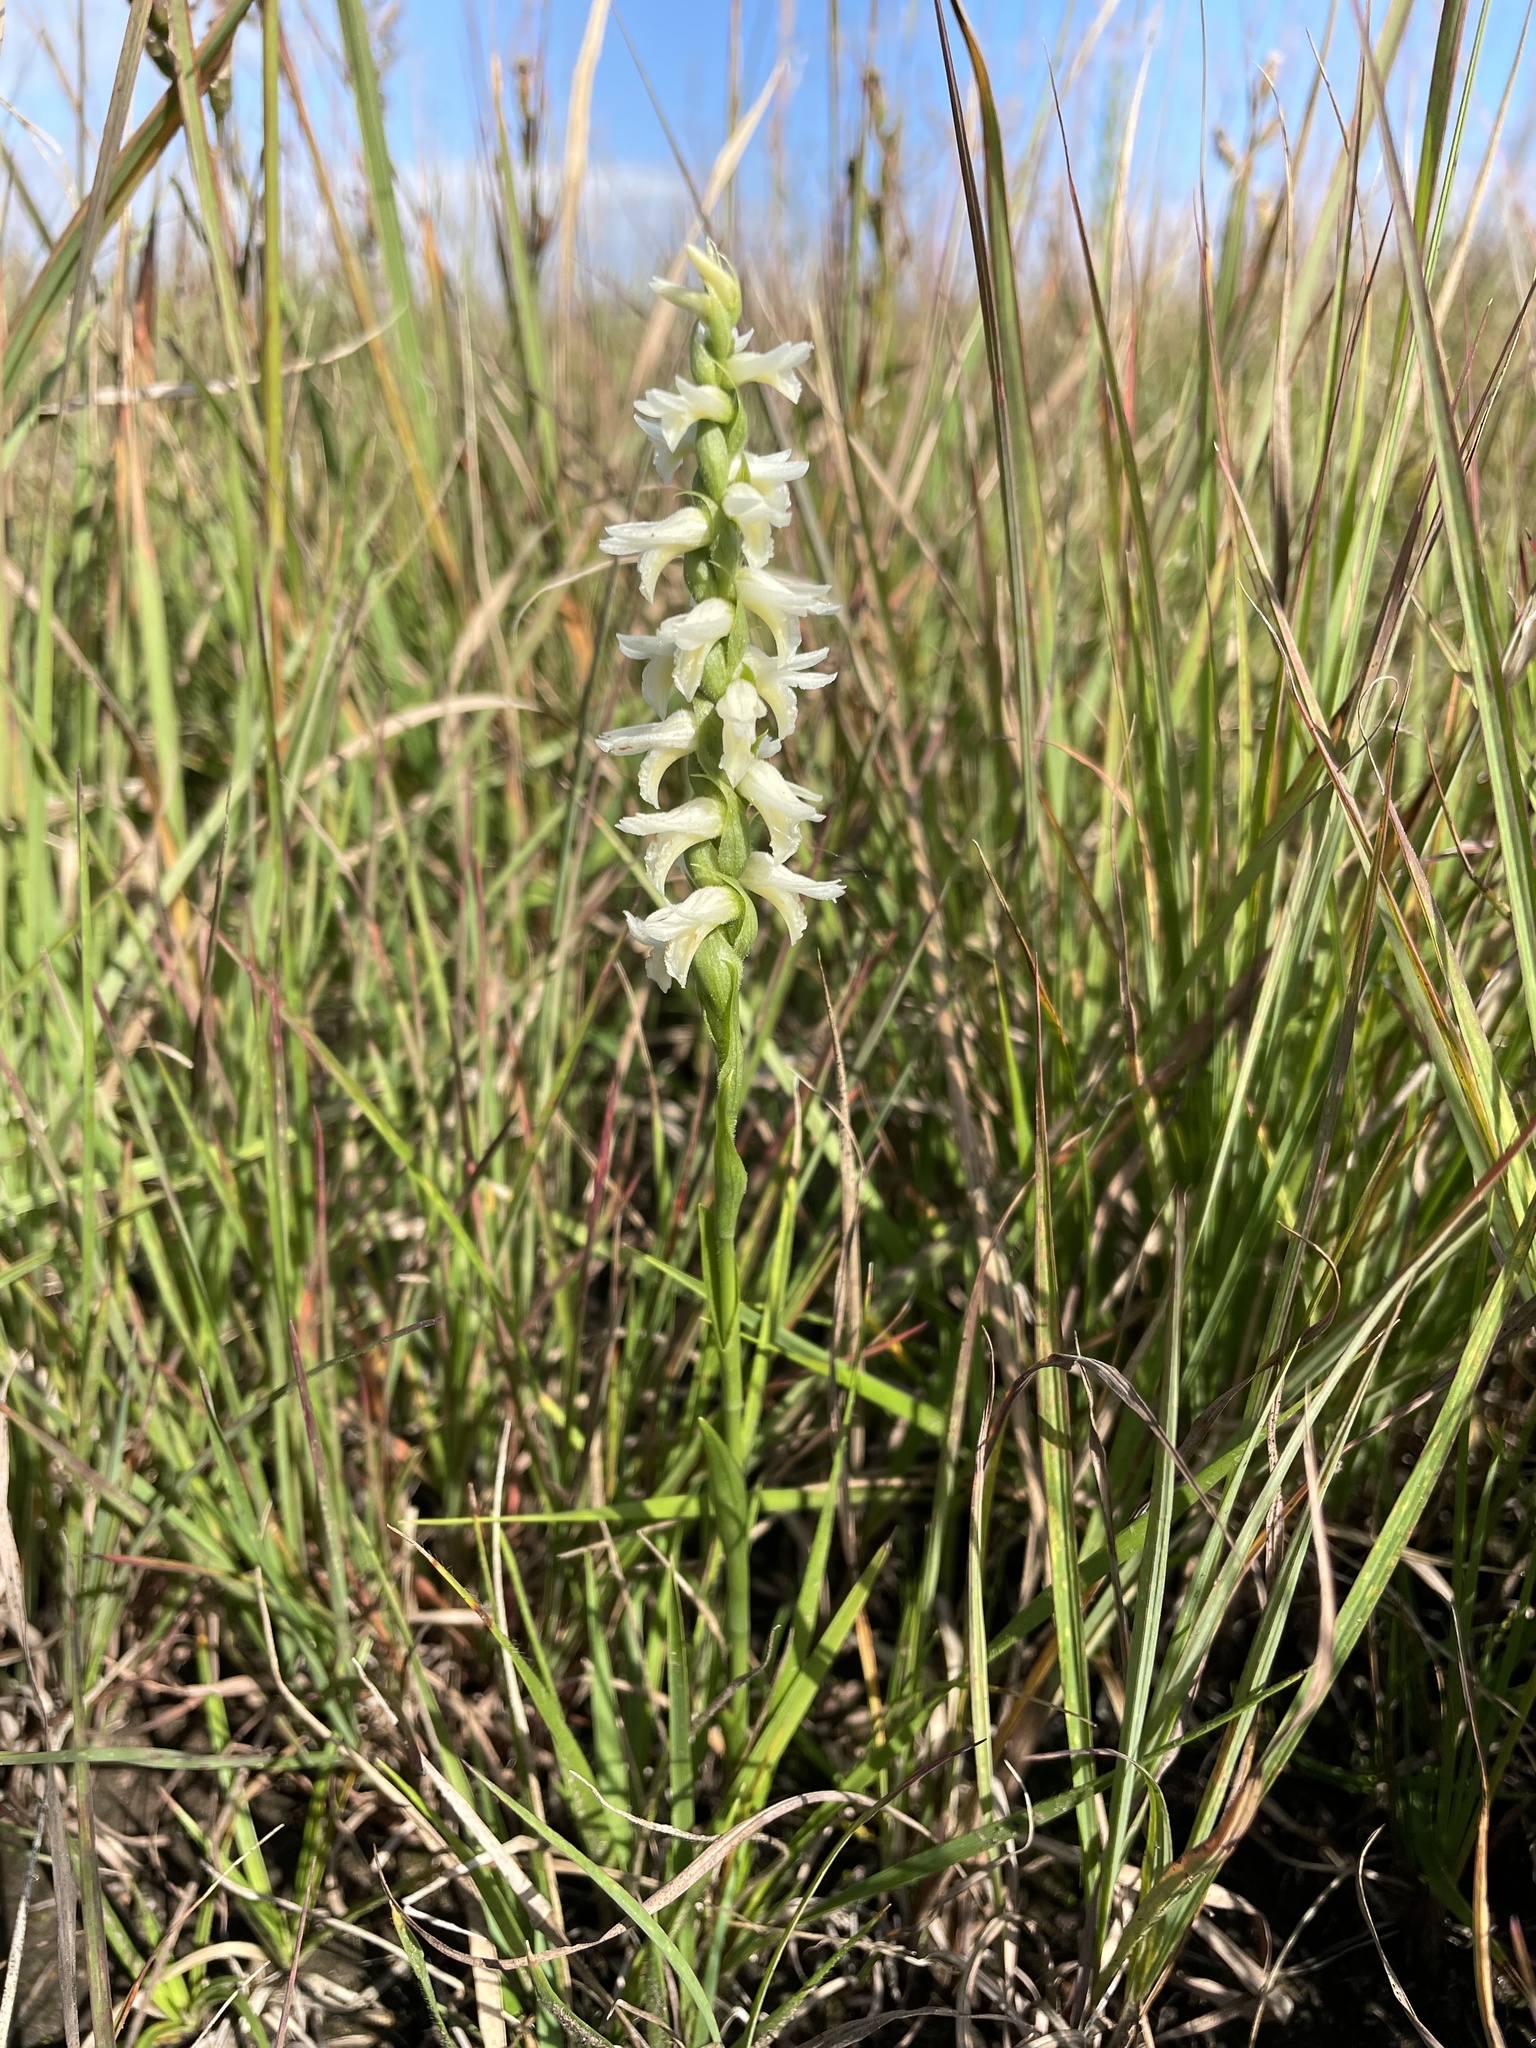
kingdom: Plantae
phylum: Tracheophyta
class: Liliopsida
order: Asparagales
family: Orchidaceae
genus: Spiranthes
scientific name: Spiranthes magnicamporum
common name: Great plains ladies'-tresses
